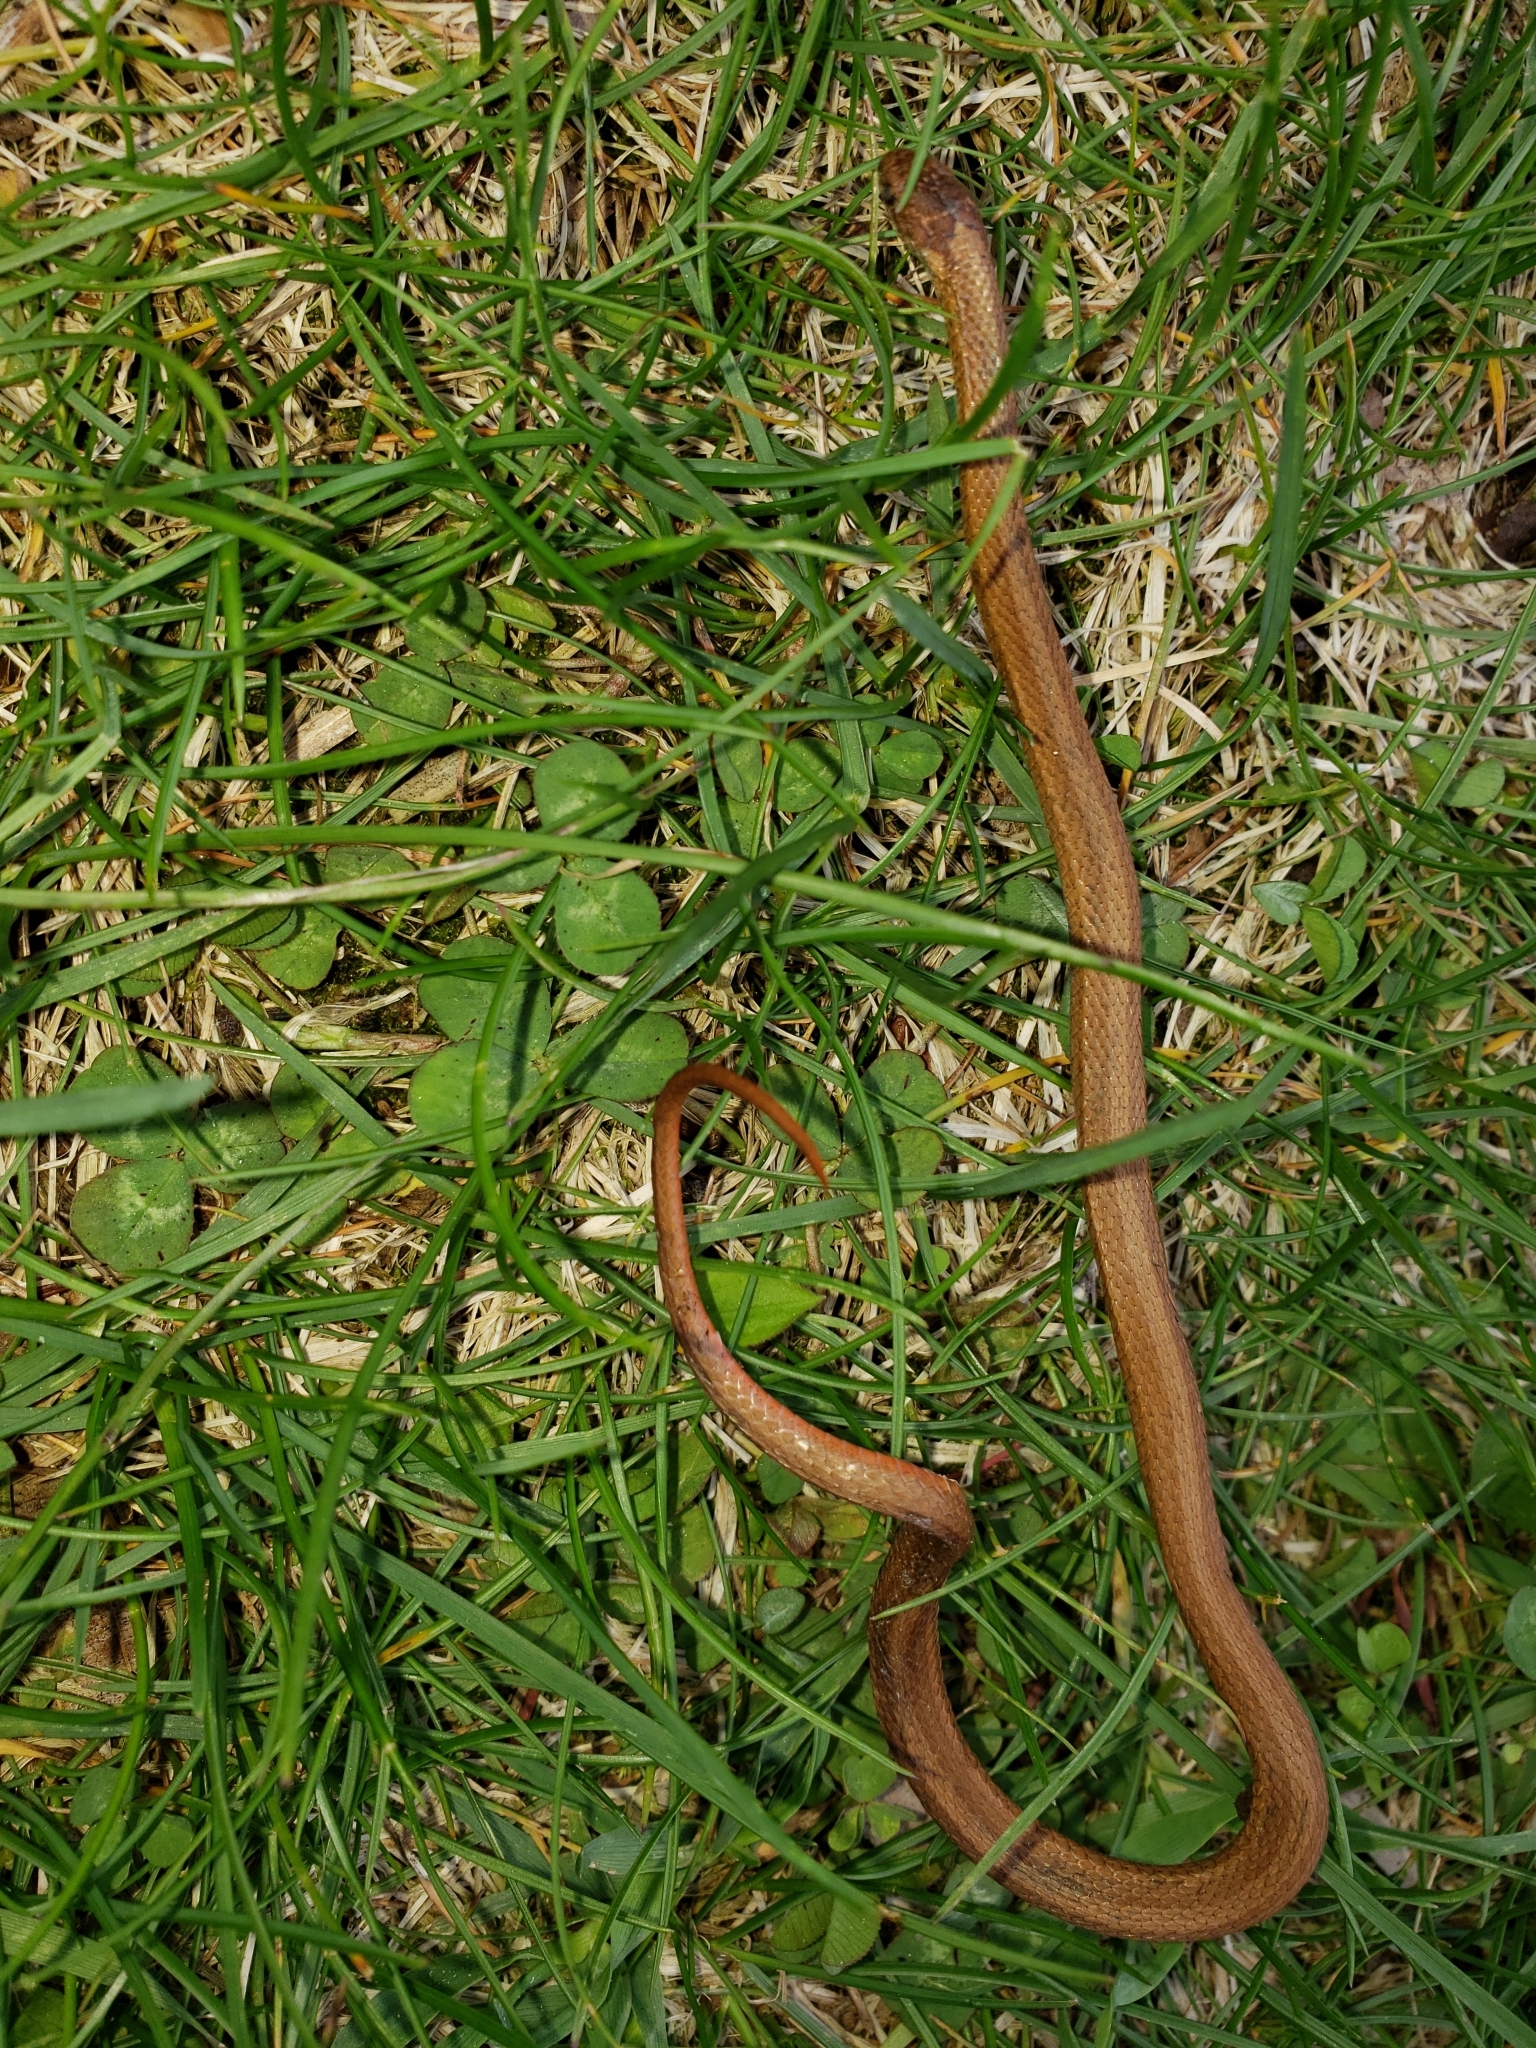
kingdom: Animalia
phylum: Chordata
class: Squamata
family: Colubridae
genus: Storeria
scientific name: Storeria occipitomaculata
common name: Redbelly snake
